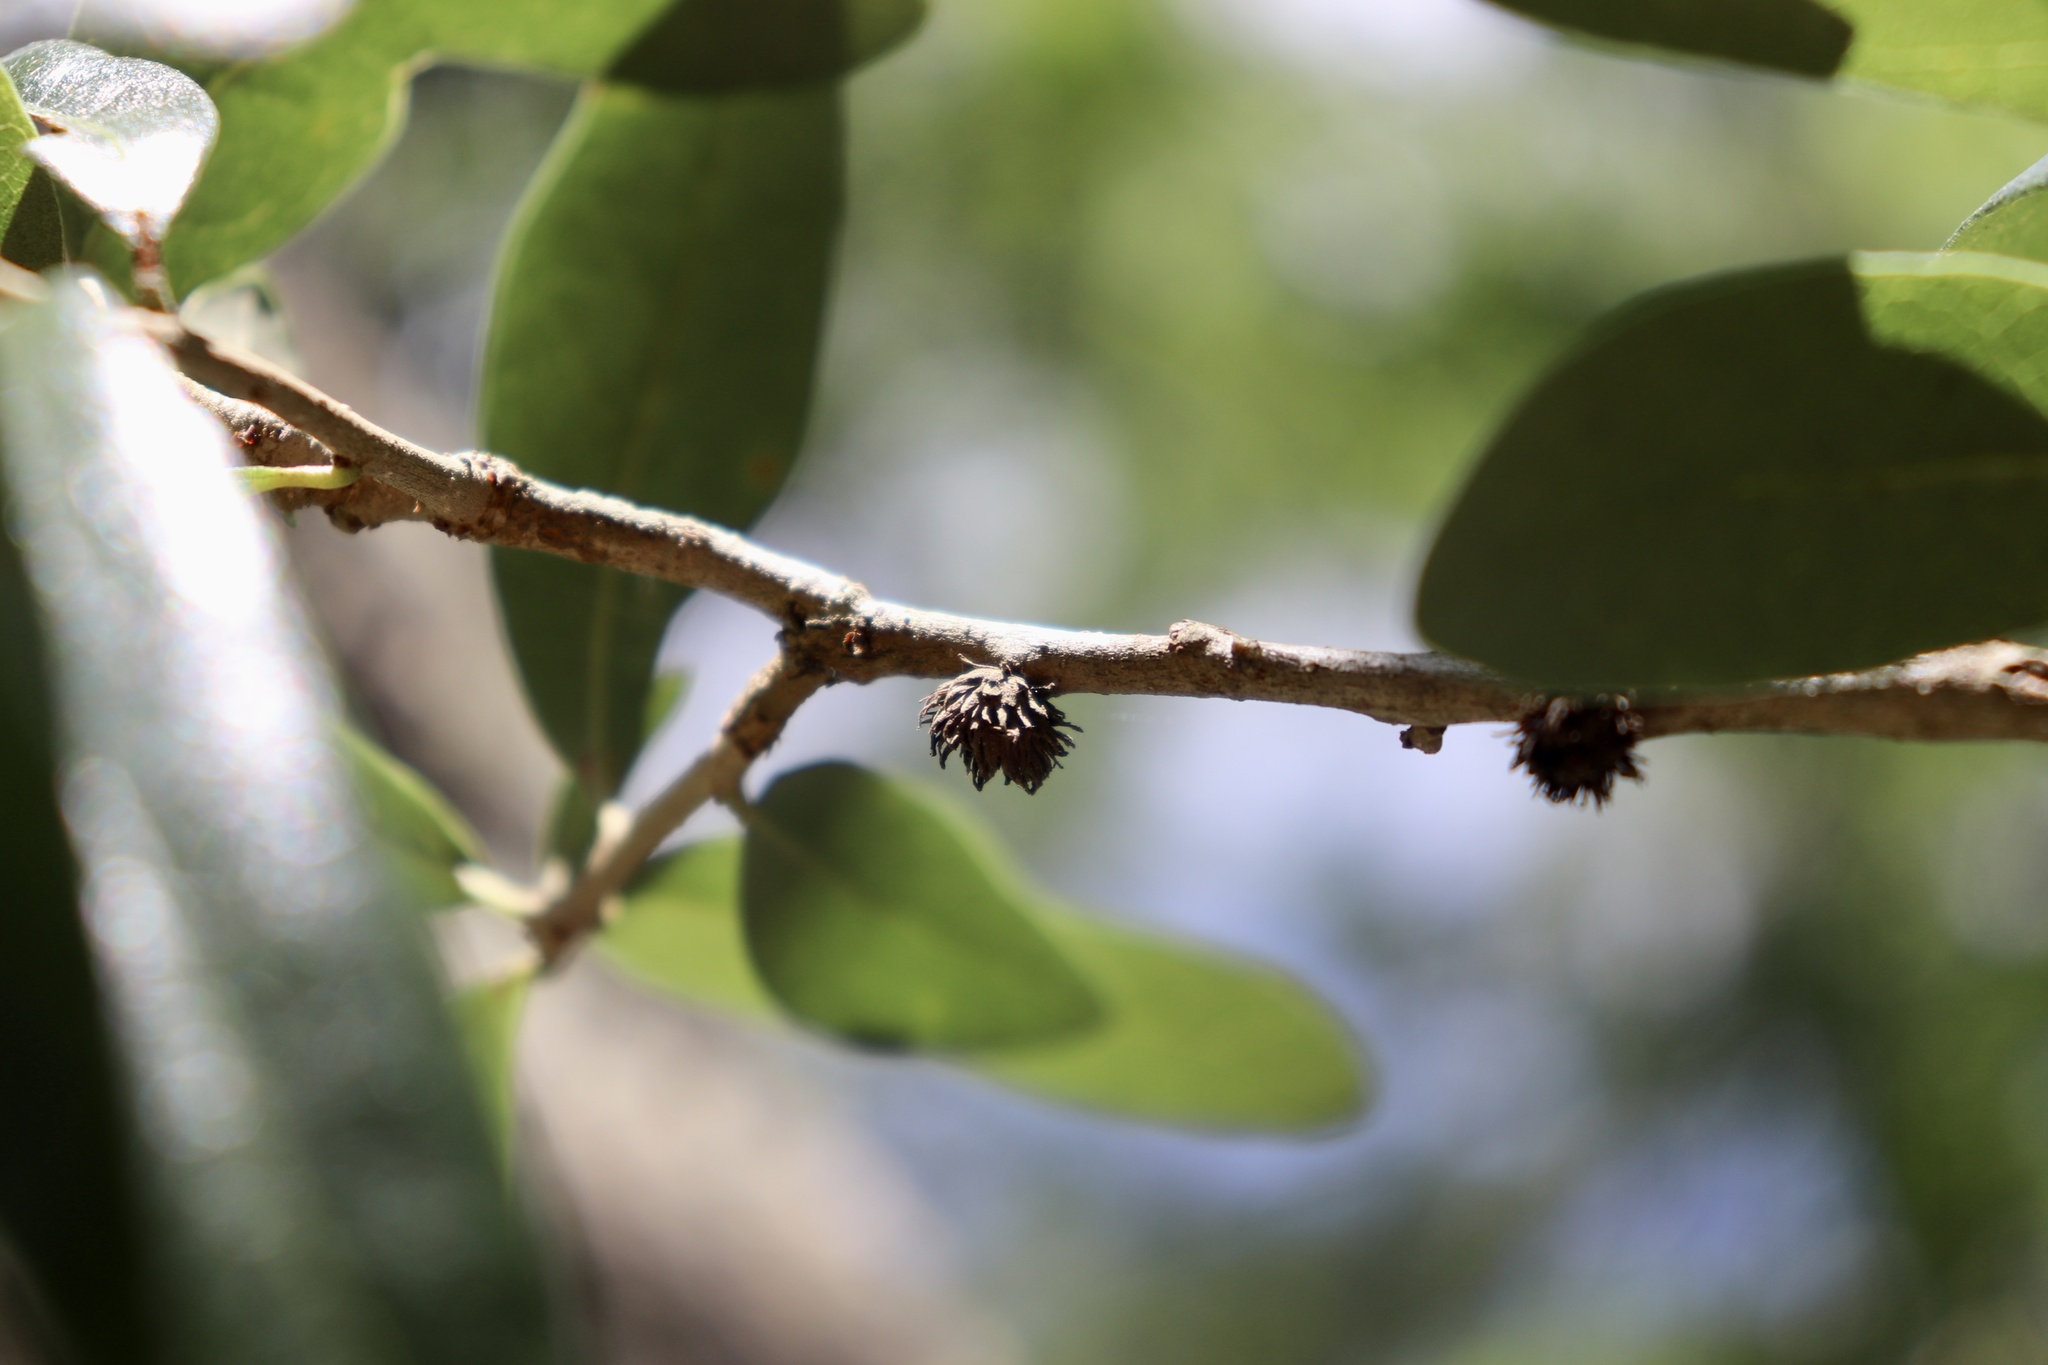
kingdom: Animalia
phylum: Arthropoda
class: Insecta
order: Hymenoptera
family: Cynipidae
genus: Andricus
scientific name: Andricus quercusfoliatus
